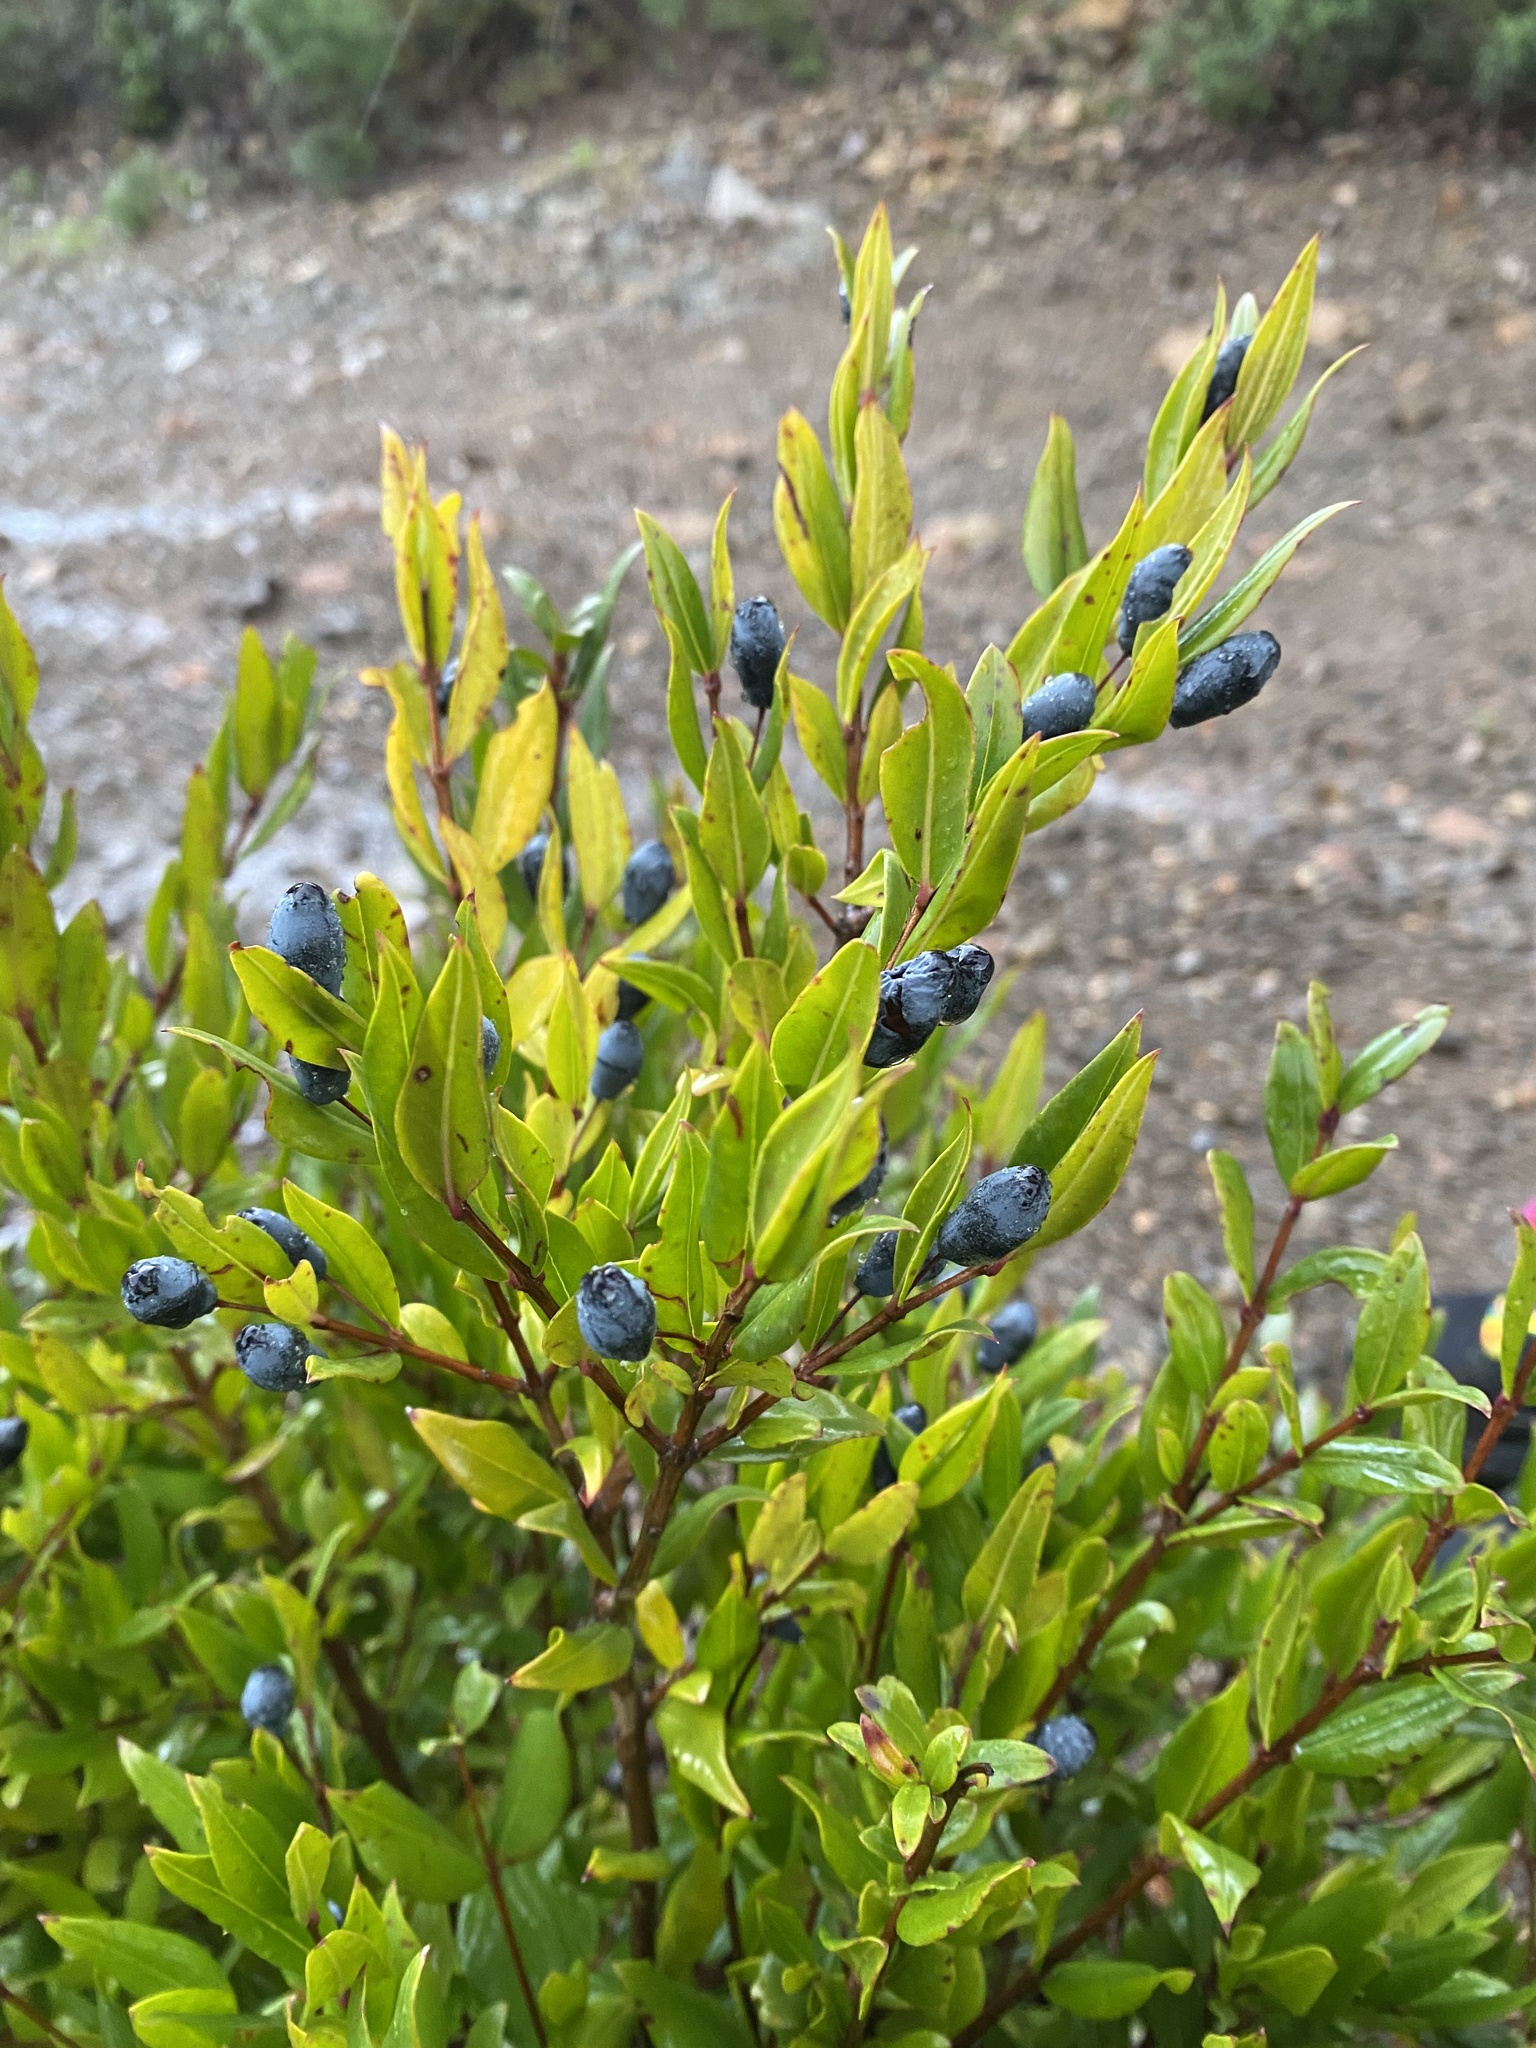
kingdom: Plantae
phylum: Tracheophyta
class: Magnoliopsida
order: Myrtales
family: Myrtaceae
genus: Myrtus
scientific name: Myrtus communis
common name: Myrtle
